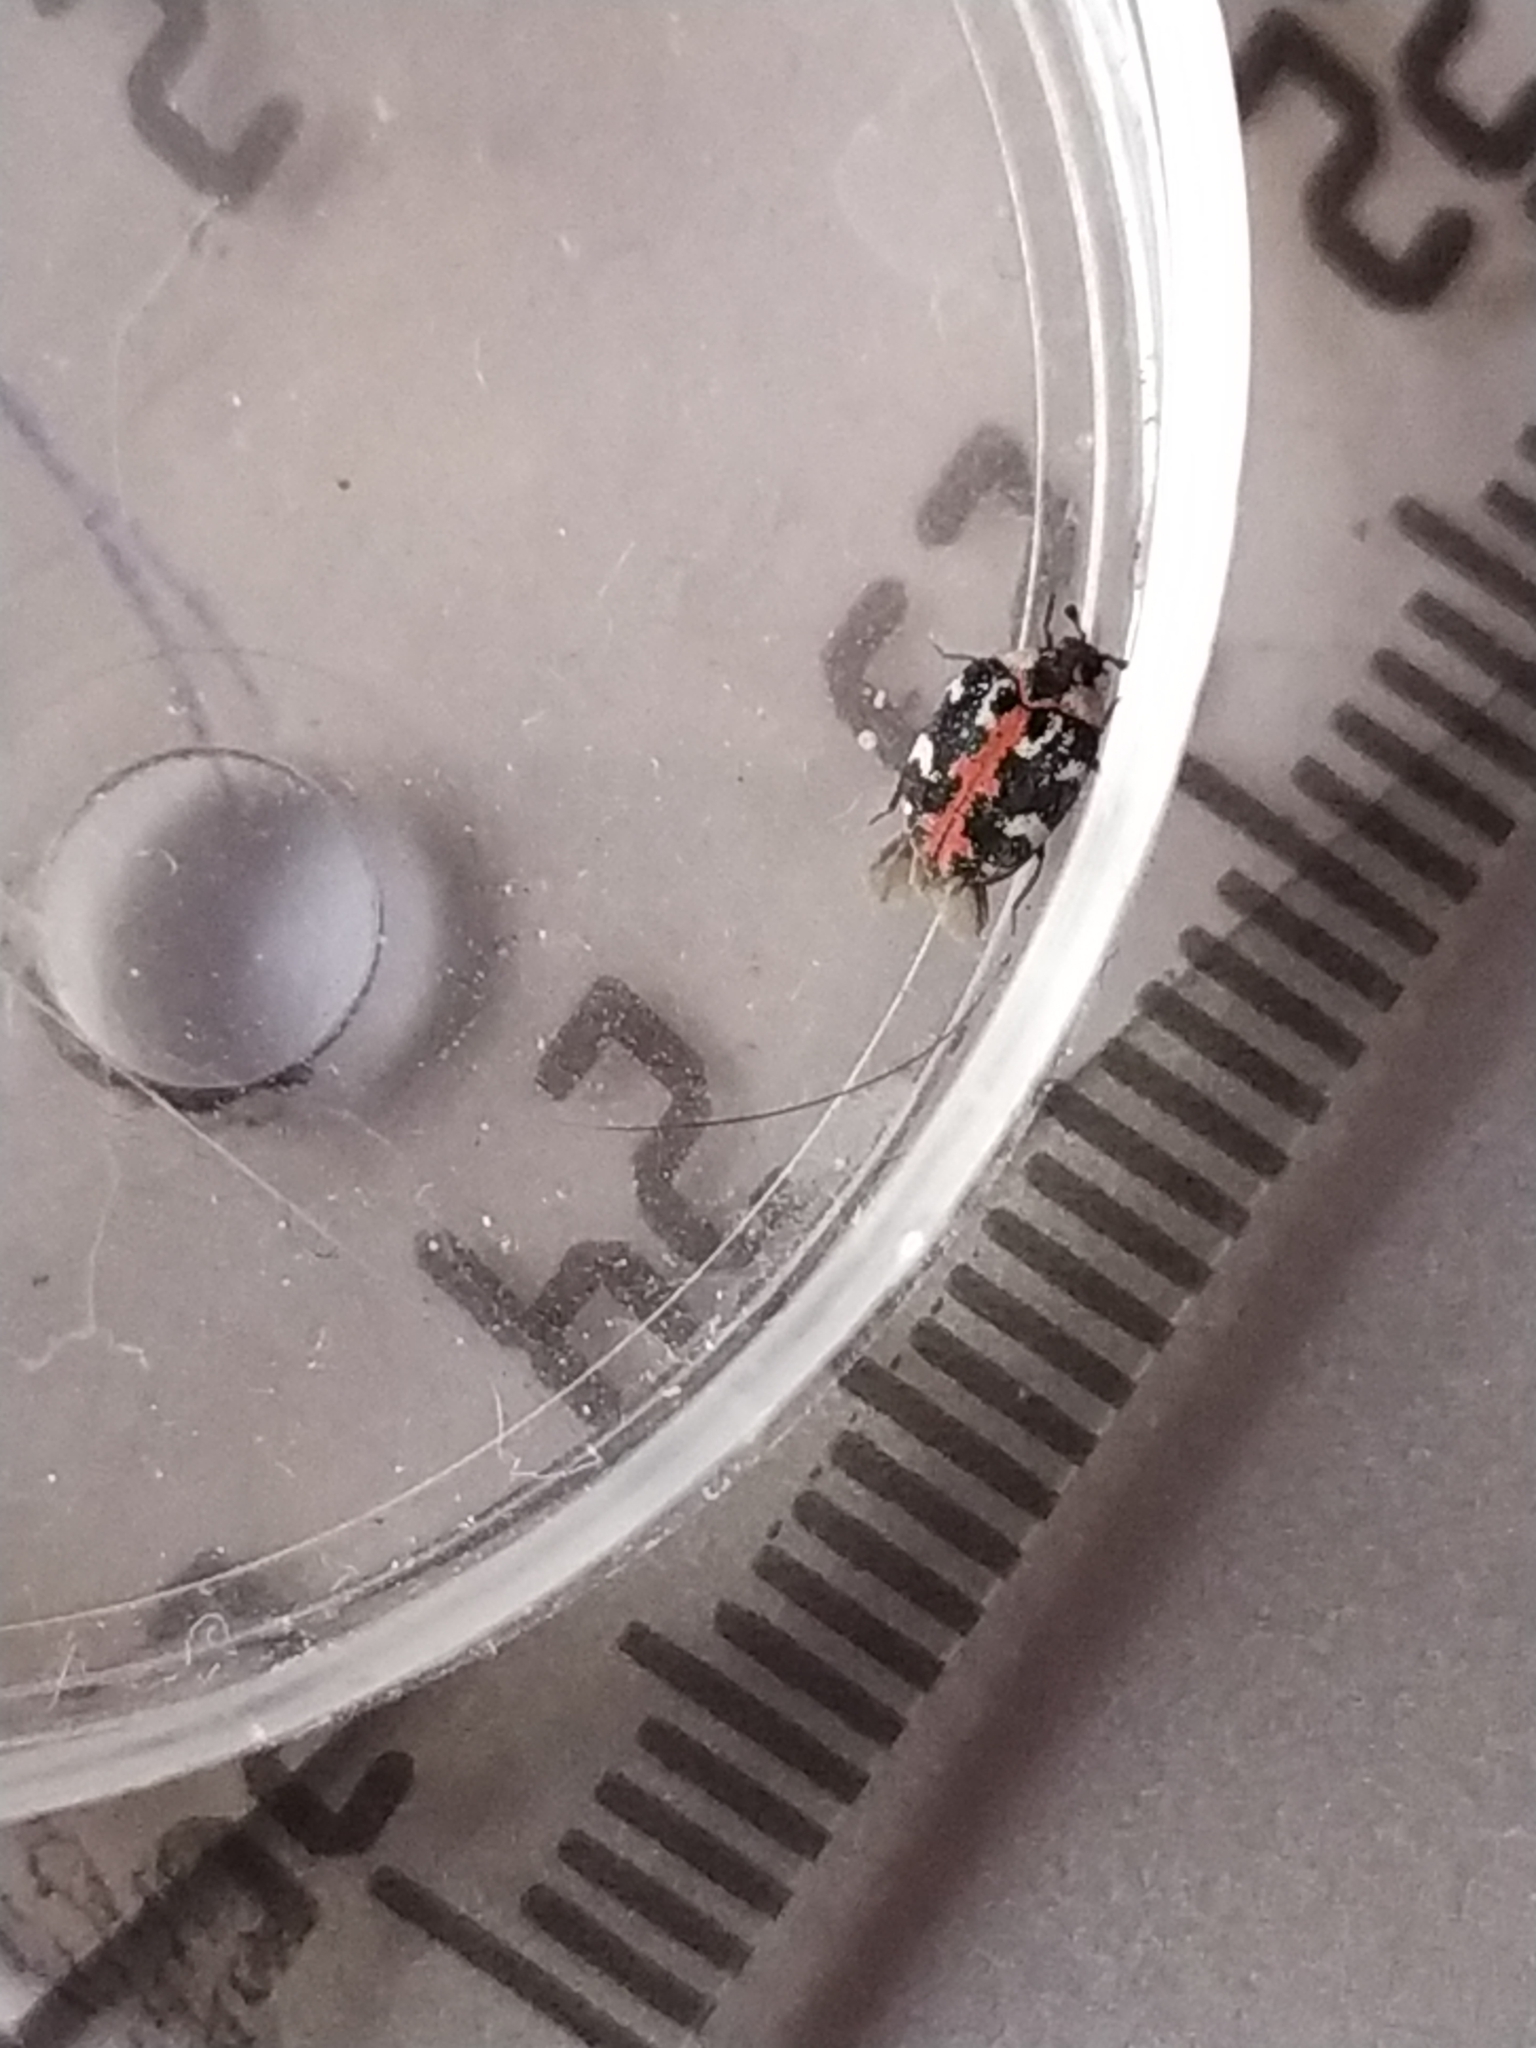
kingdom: Animalia
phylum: Arthropoda
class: Insecta
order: Coleoptera
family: Dermestidae
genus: Anthrenus
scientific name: Anthrenus scrophulariae
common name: Buffalo carpet beetle
